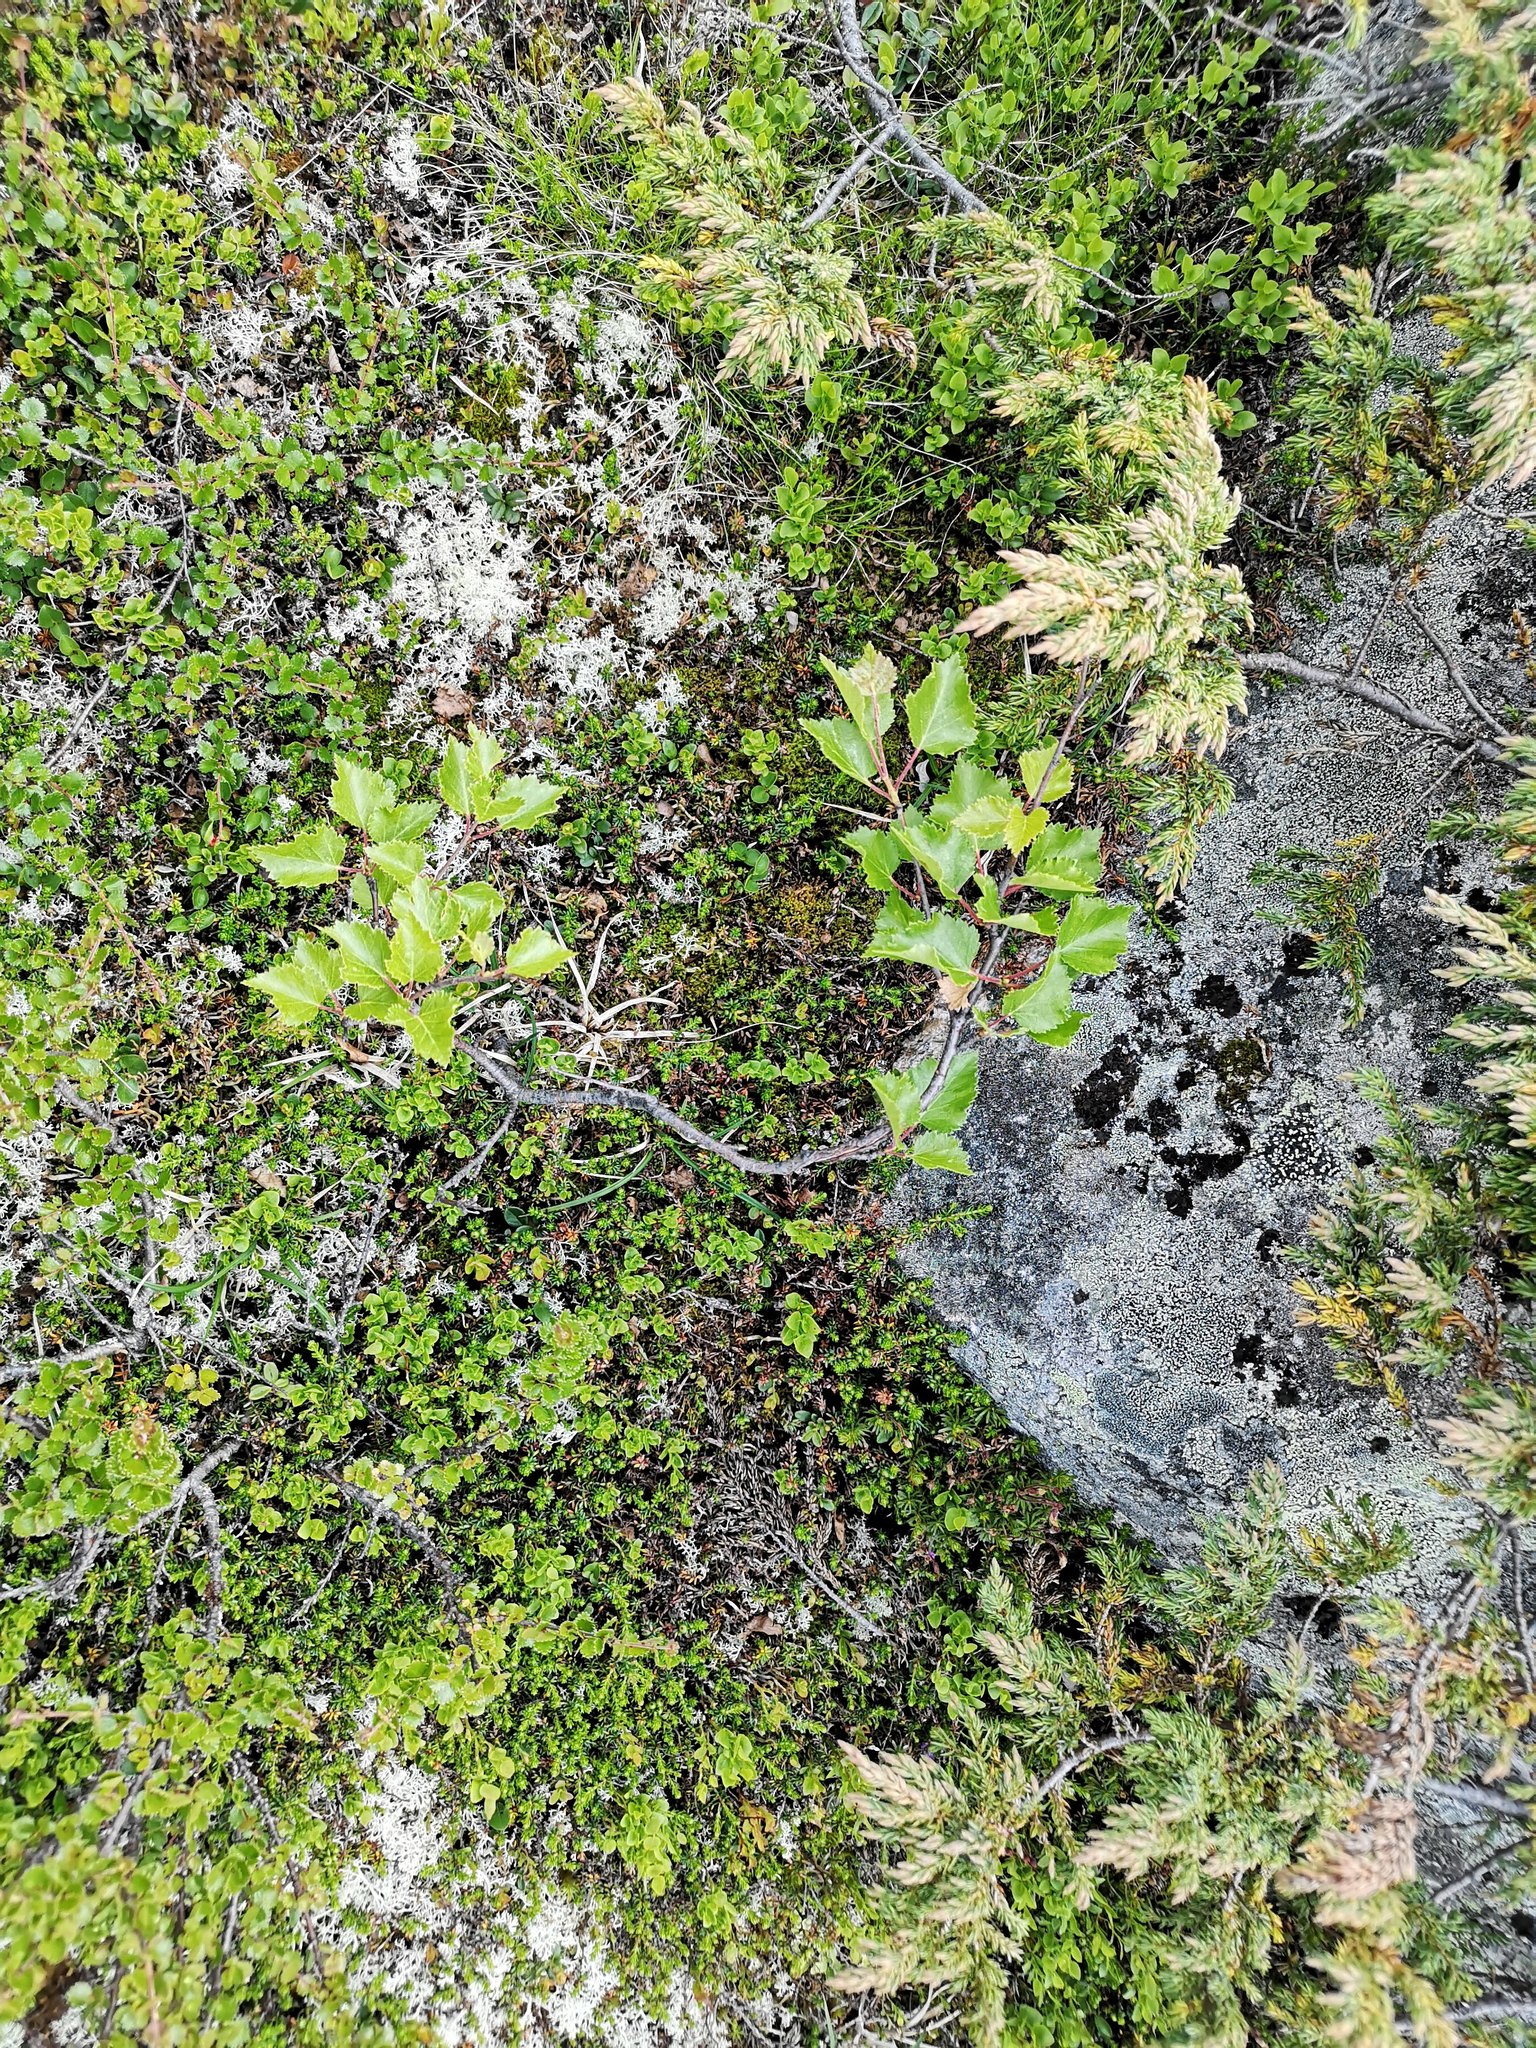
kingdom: Plantae
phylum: Tracheophyta
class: Magnoliopsida
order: Fagales
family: Betulaceae
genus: Betula
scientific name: Betula pubescens
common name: Downy birch
